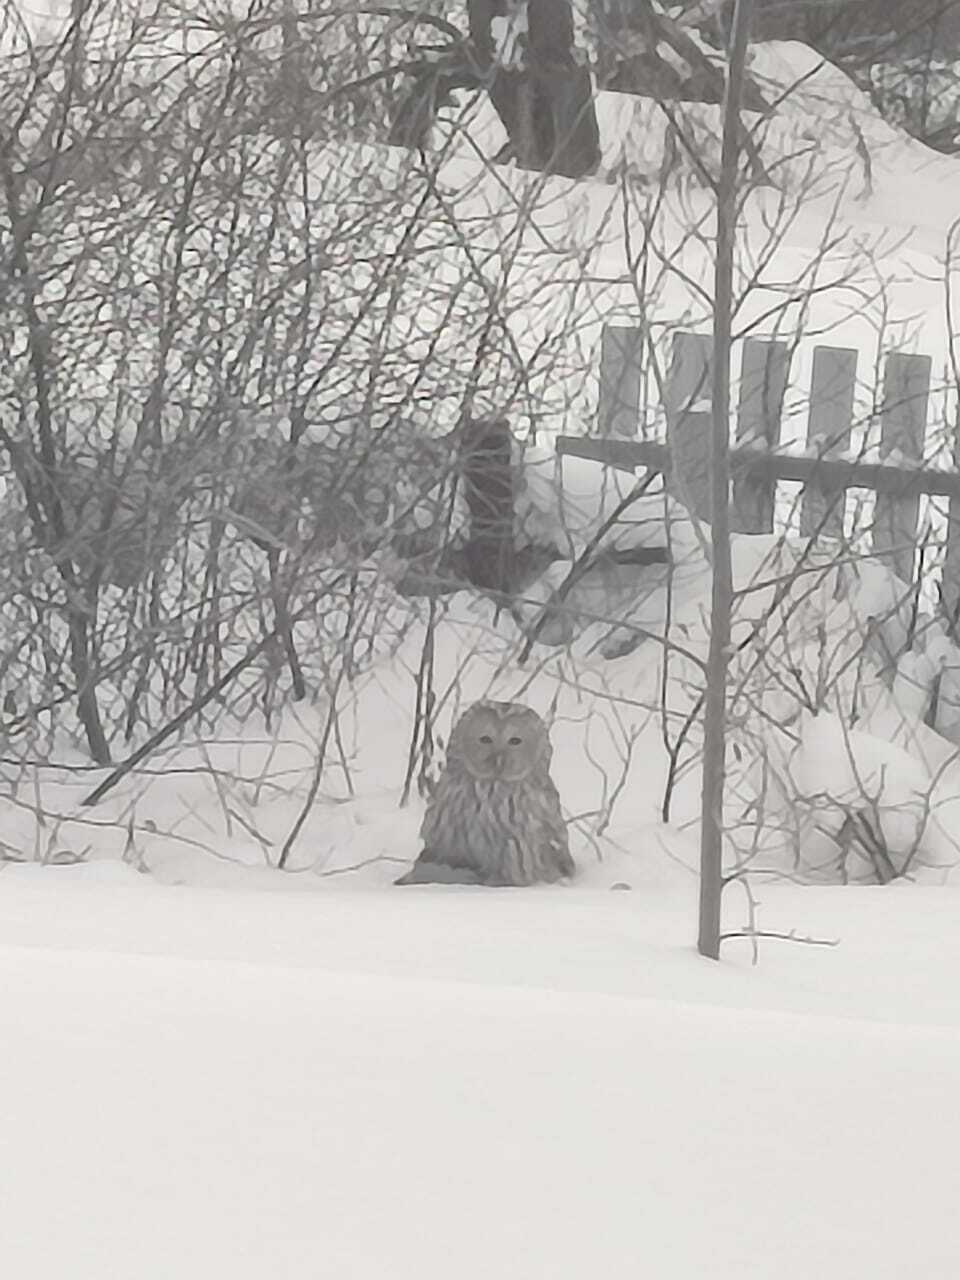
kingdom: Animalia
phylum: Chordata
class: Aves
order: Strigiformes
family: Strigidae
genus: Strix
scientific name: Strix uralensis
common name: Ural owl
